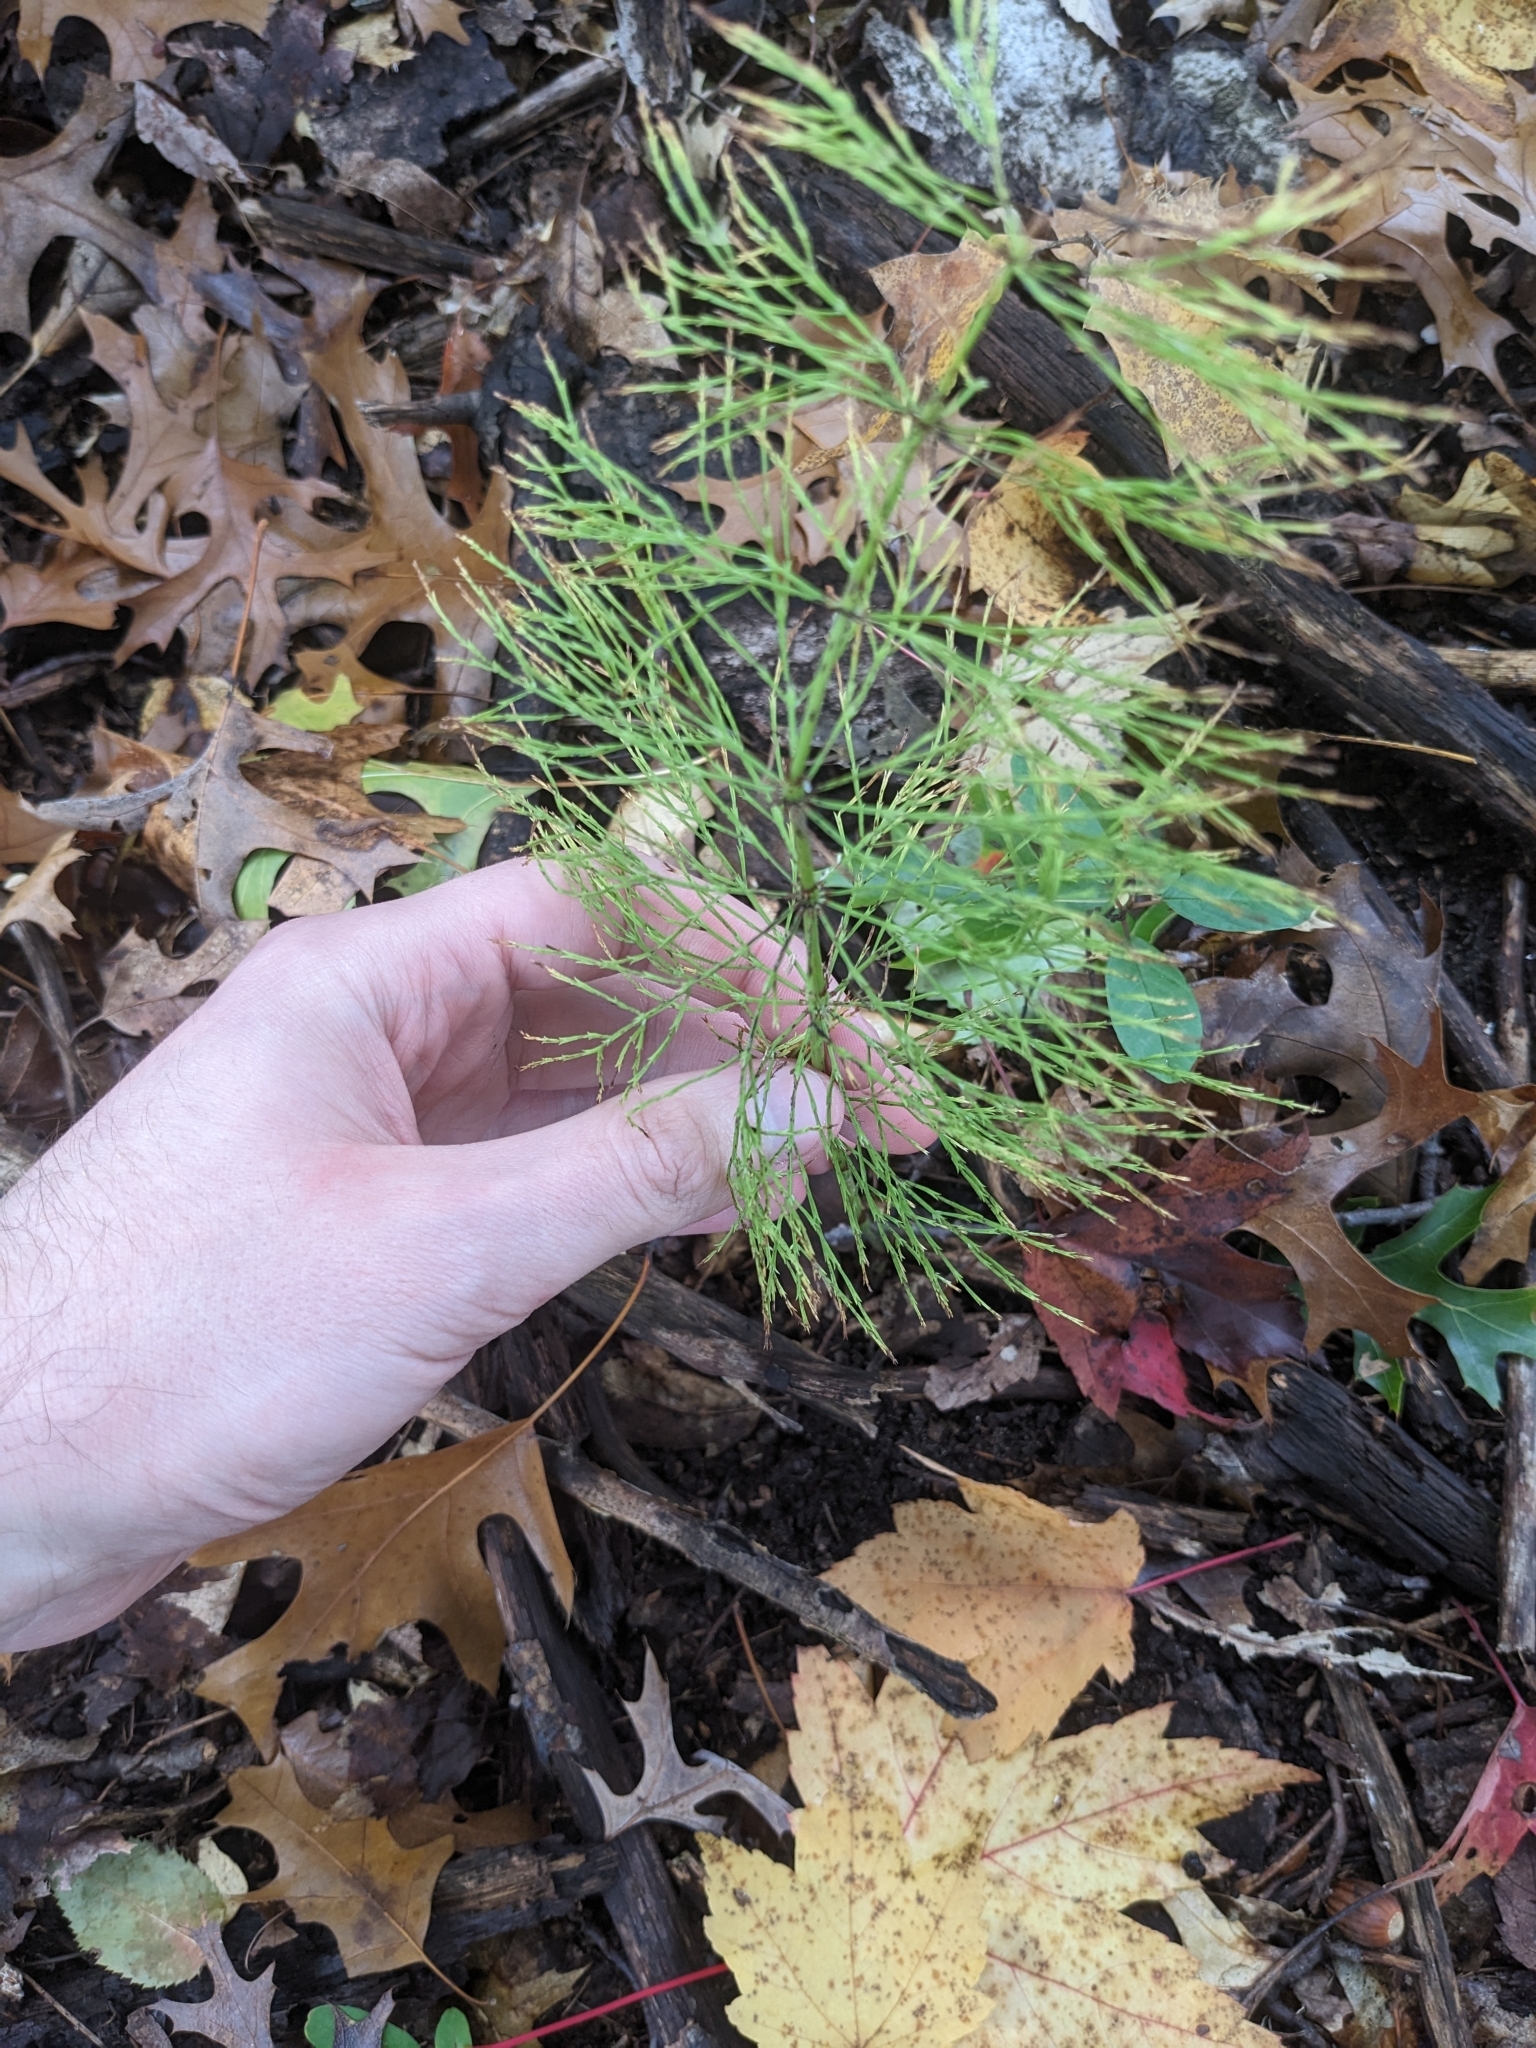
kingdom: Plantae
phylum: Tracheophyta
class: Polypodiopsida
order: Equisetales
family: Equisetaceae
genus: Equisetum
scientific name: Equisetum sylvaticum
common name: Wood horsetail
